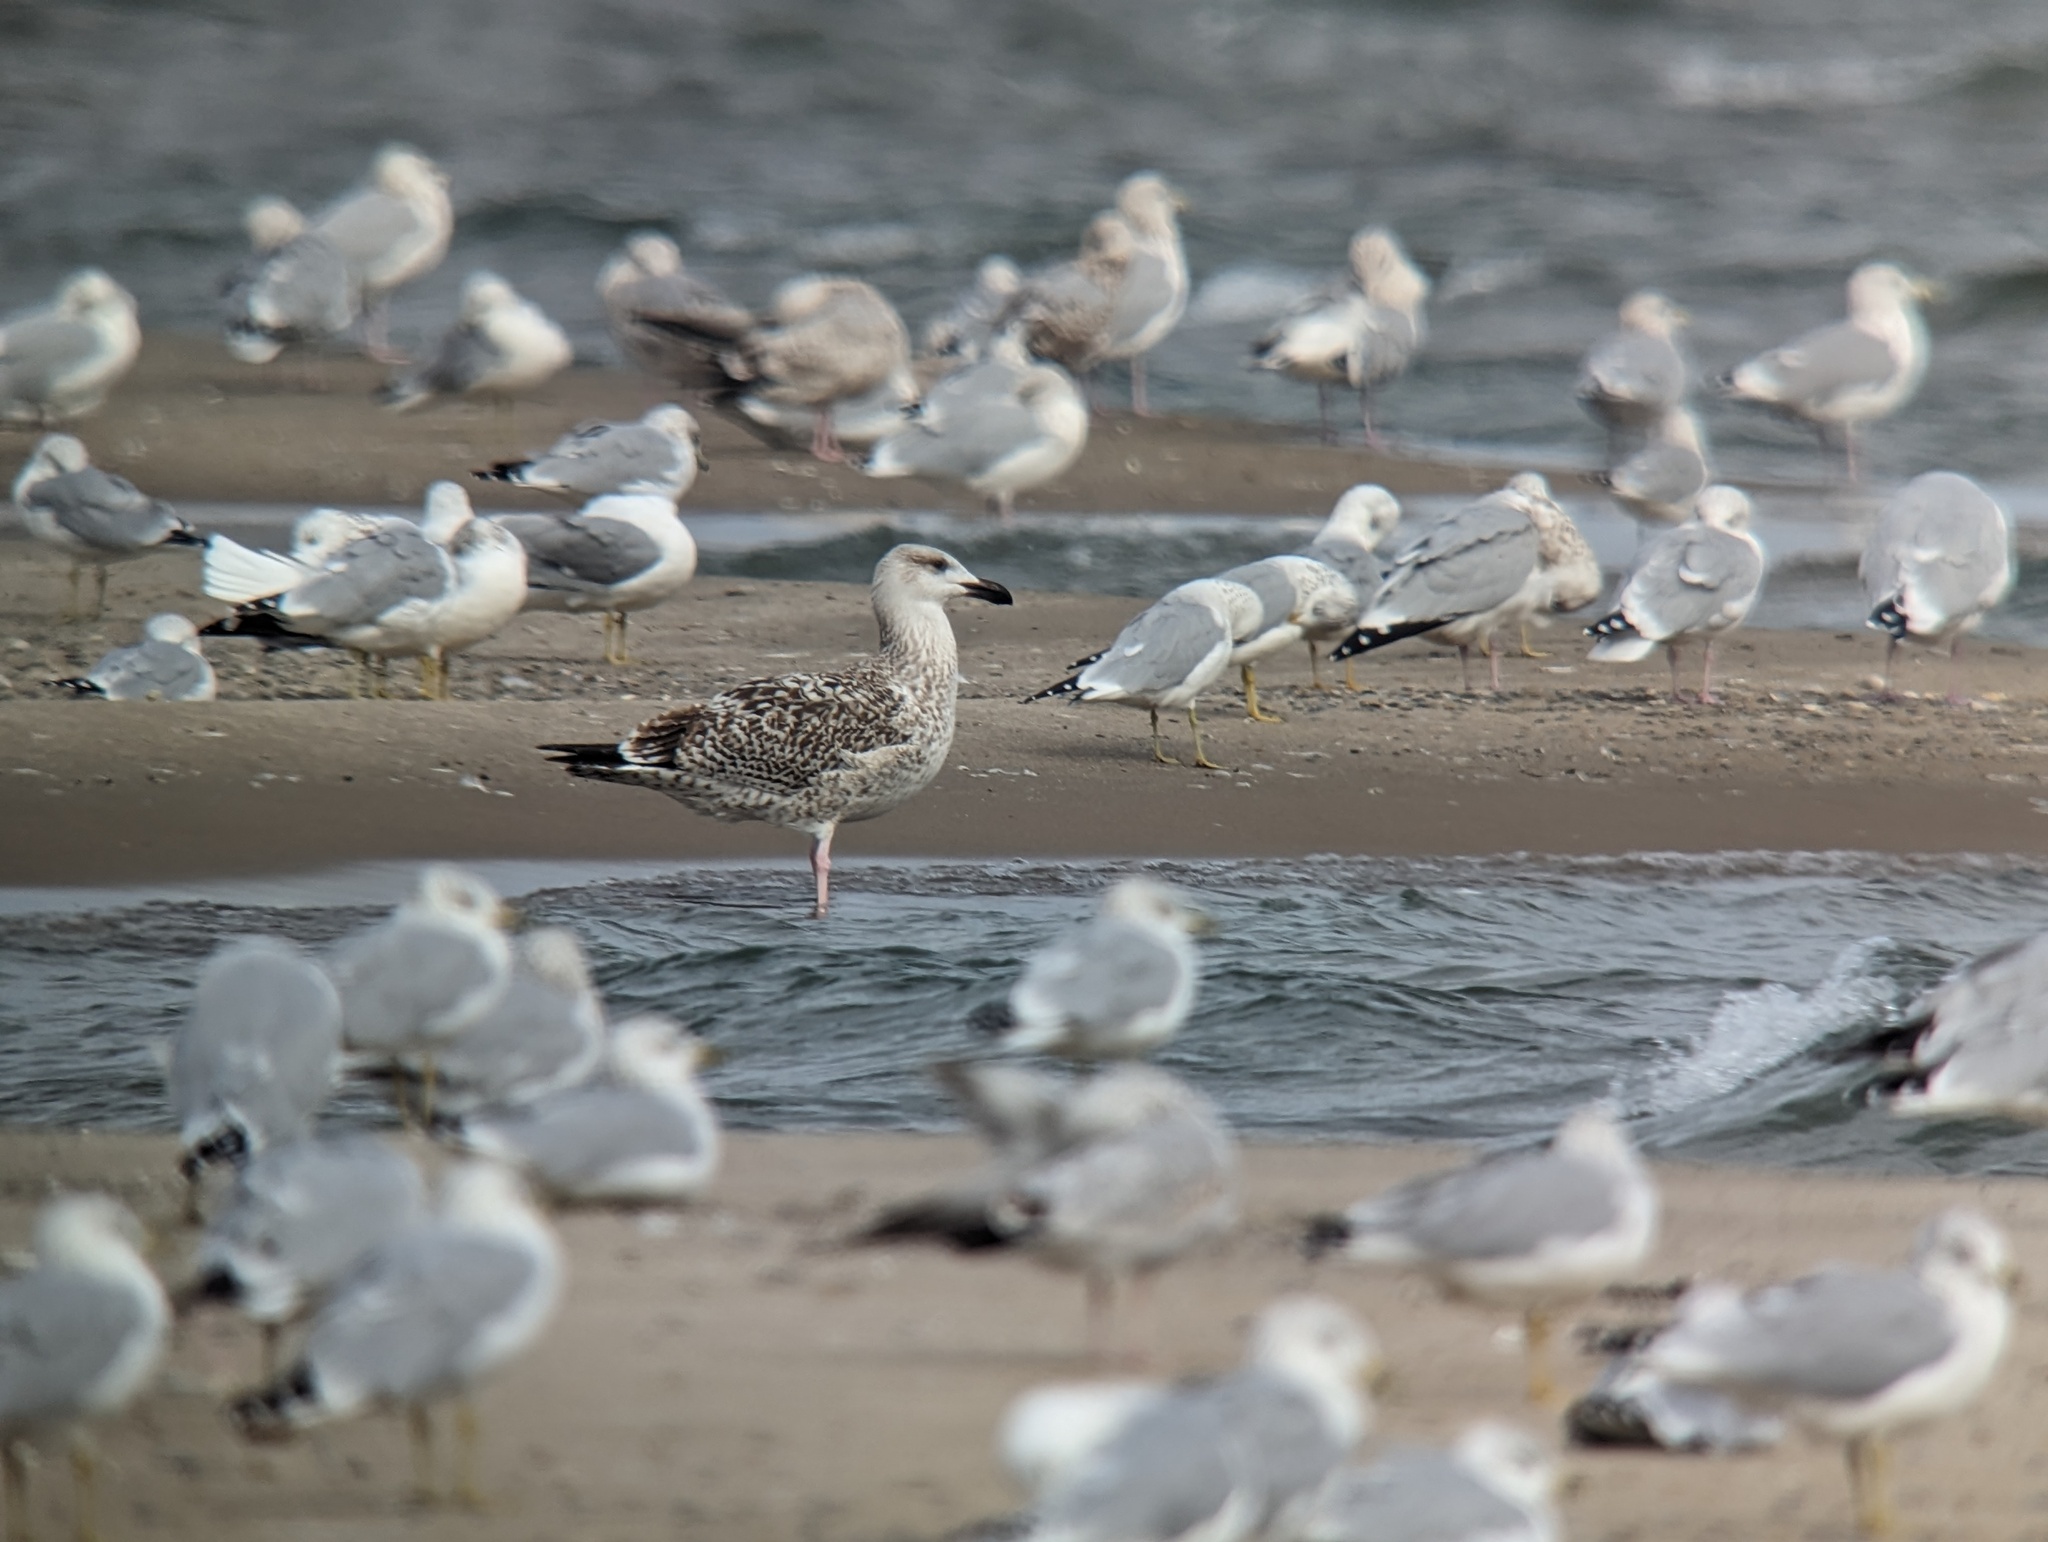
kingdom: Animalia
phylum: Chordata
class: Aves
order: Charadriiformes
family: Laridae
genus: Larus
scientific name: Larus marinus
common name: Great black-backed gull
